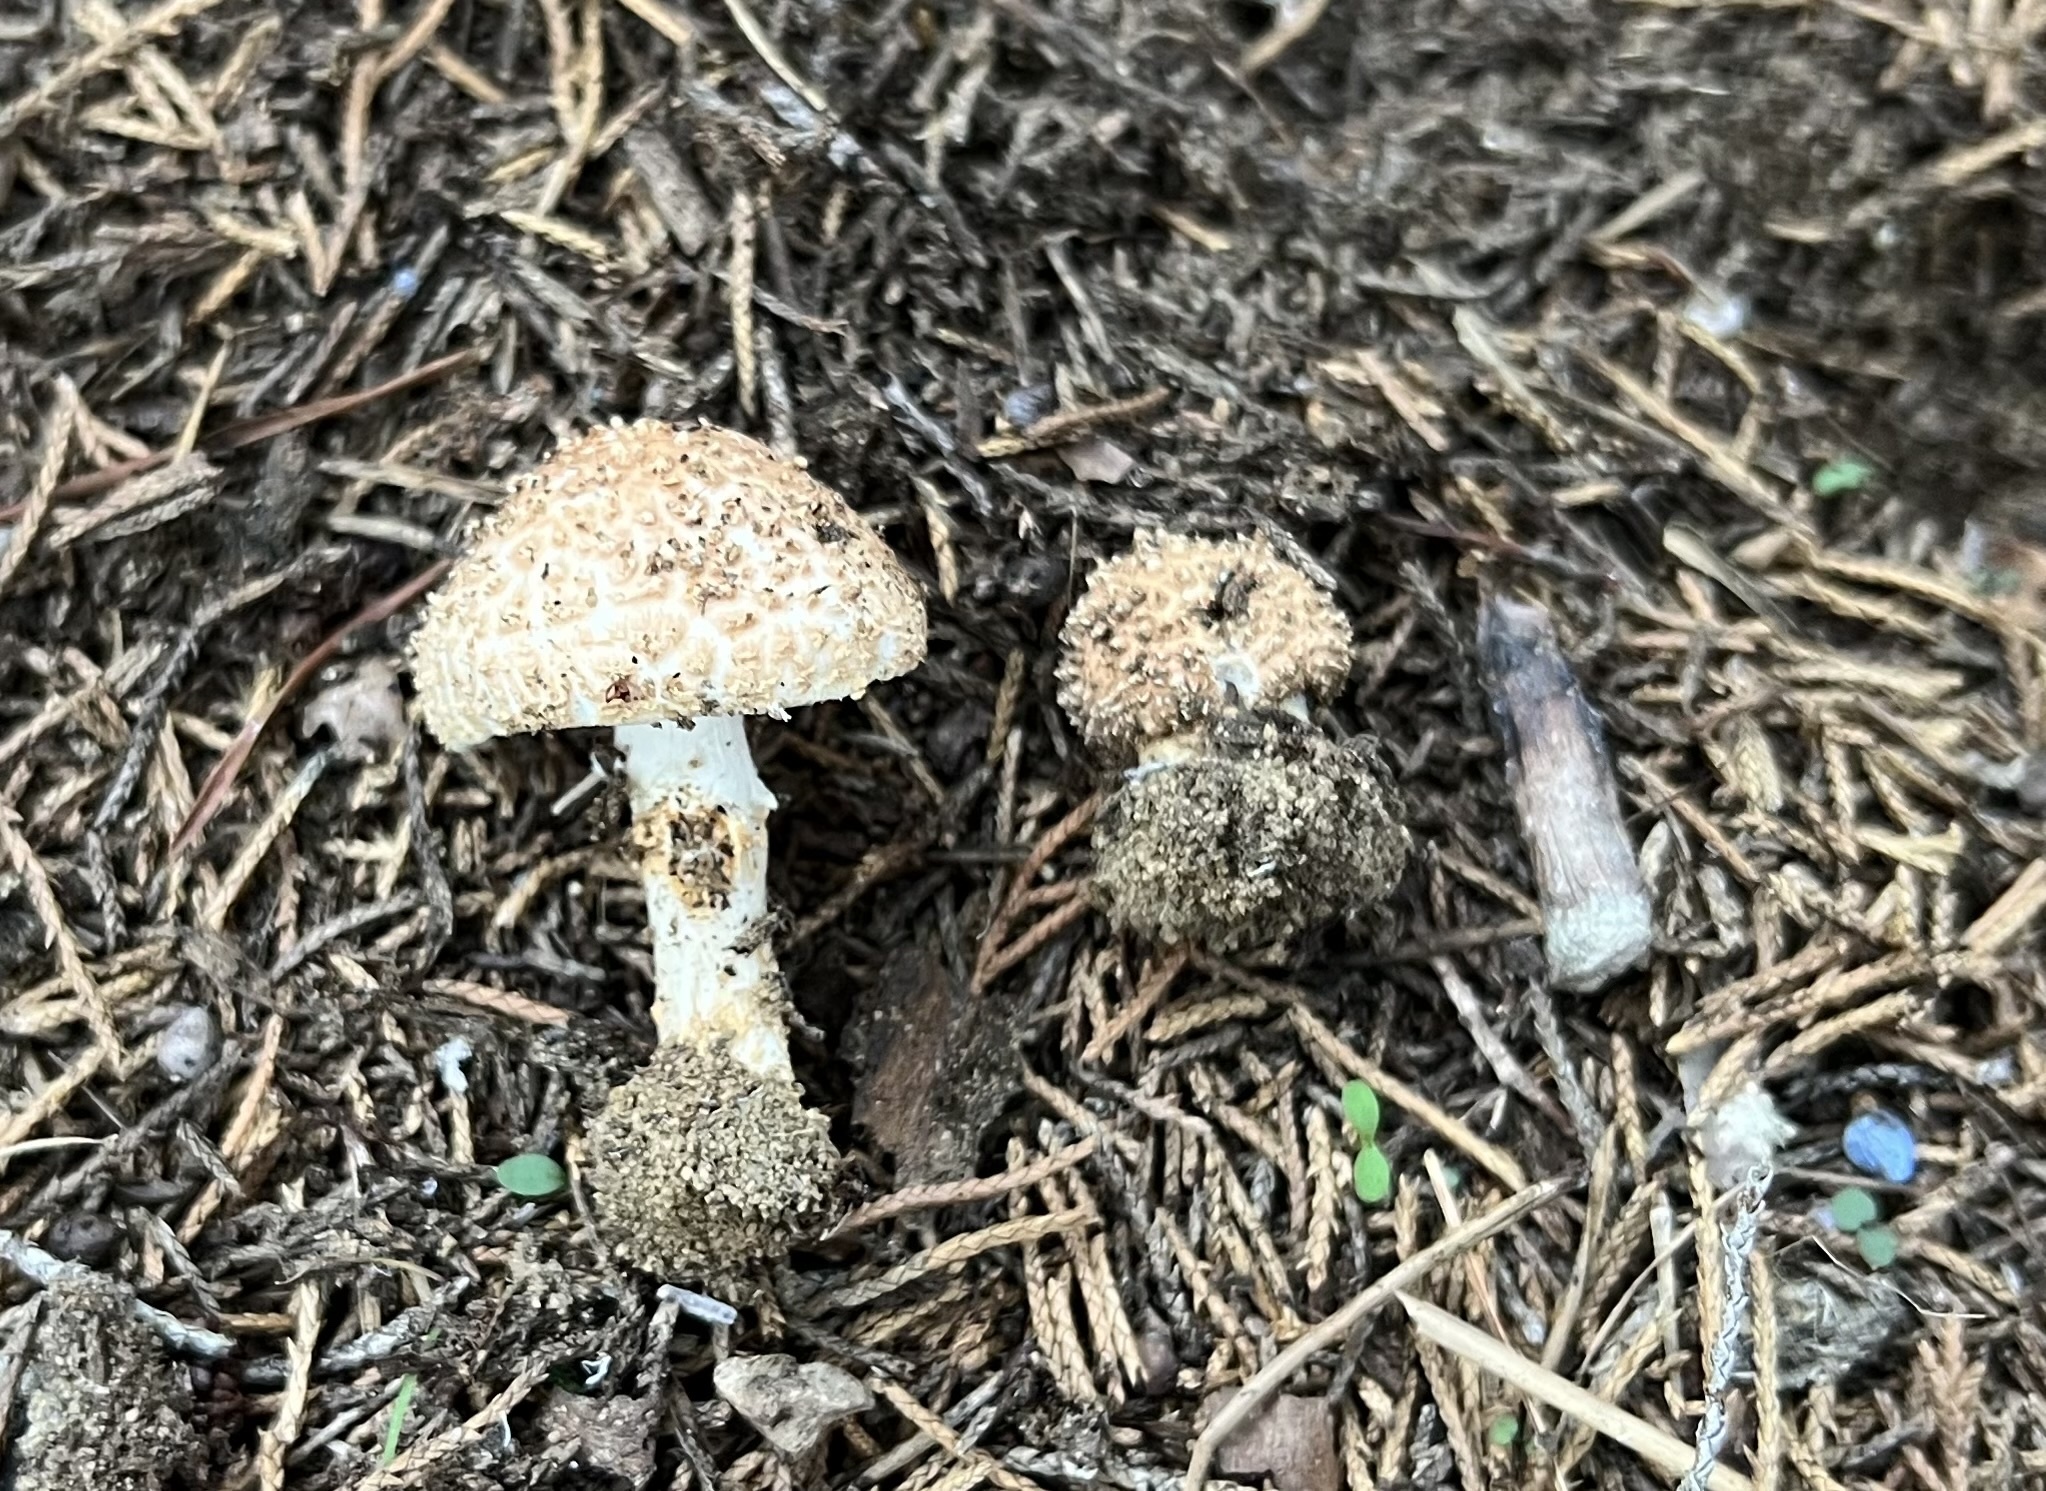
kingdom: Fungi
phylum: Basidiomycota
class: Agaricomycetes
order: Agaricales
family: Agaricaceae
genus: Echinoderma
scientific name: Echinoderma asperum
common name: Freckled dapperling
